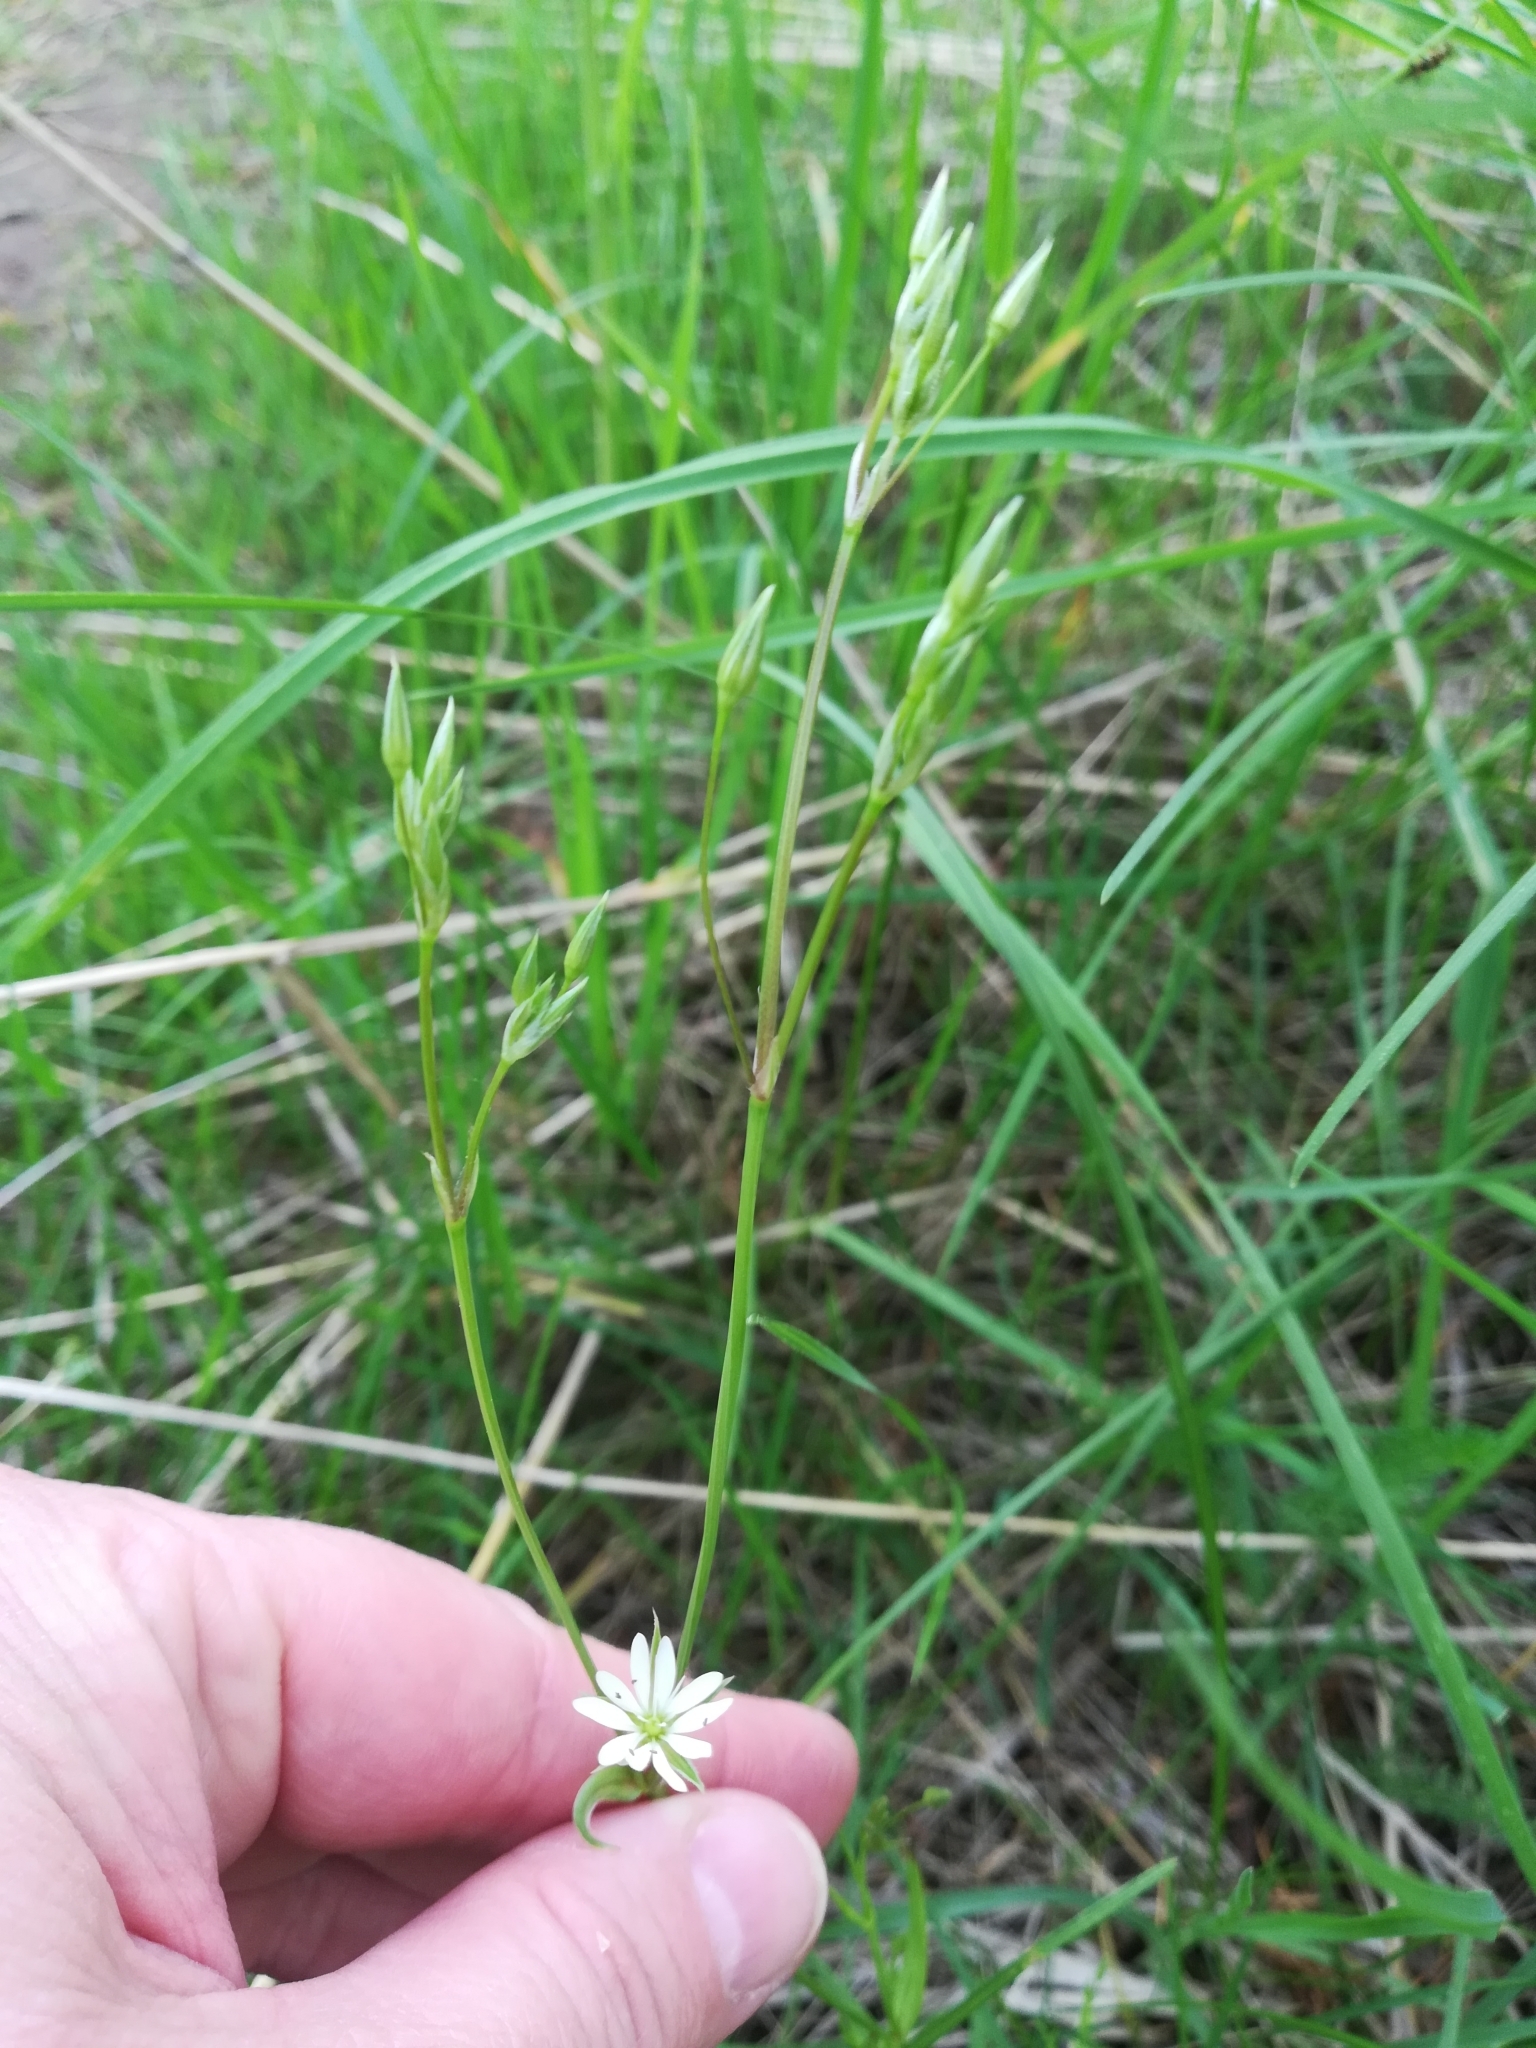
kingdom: Plantae
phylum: Tracheophyta
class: Magnoliopsida
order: Caryophyllales
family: Caryophyllaceae
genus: Stellaria
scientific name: Stellaria graminea
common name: Grass-like starwort
